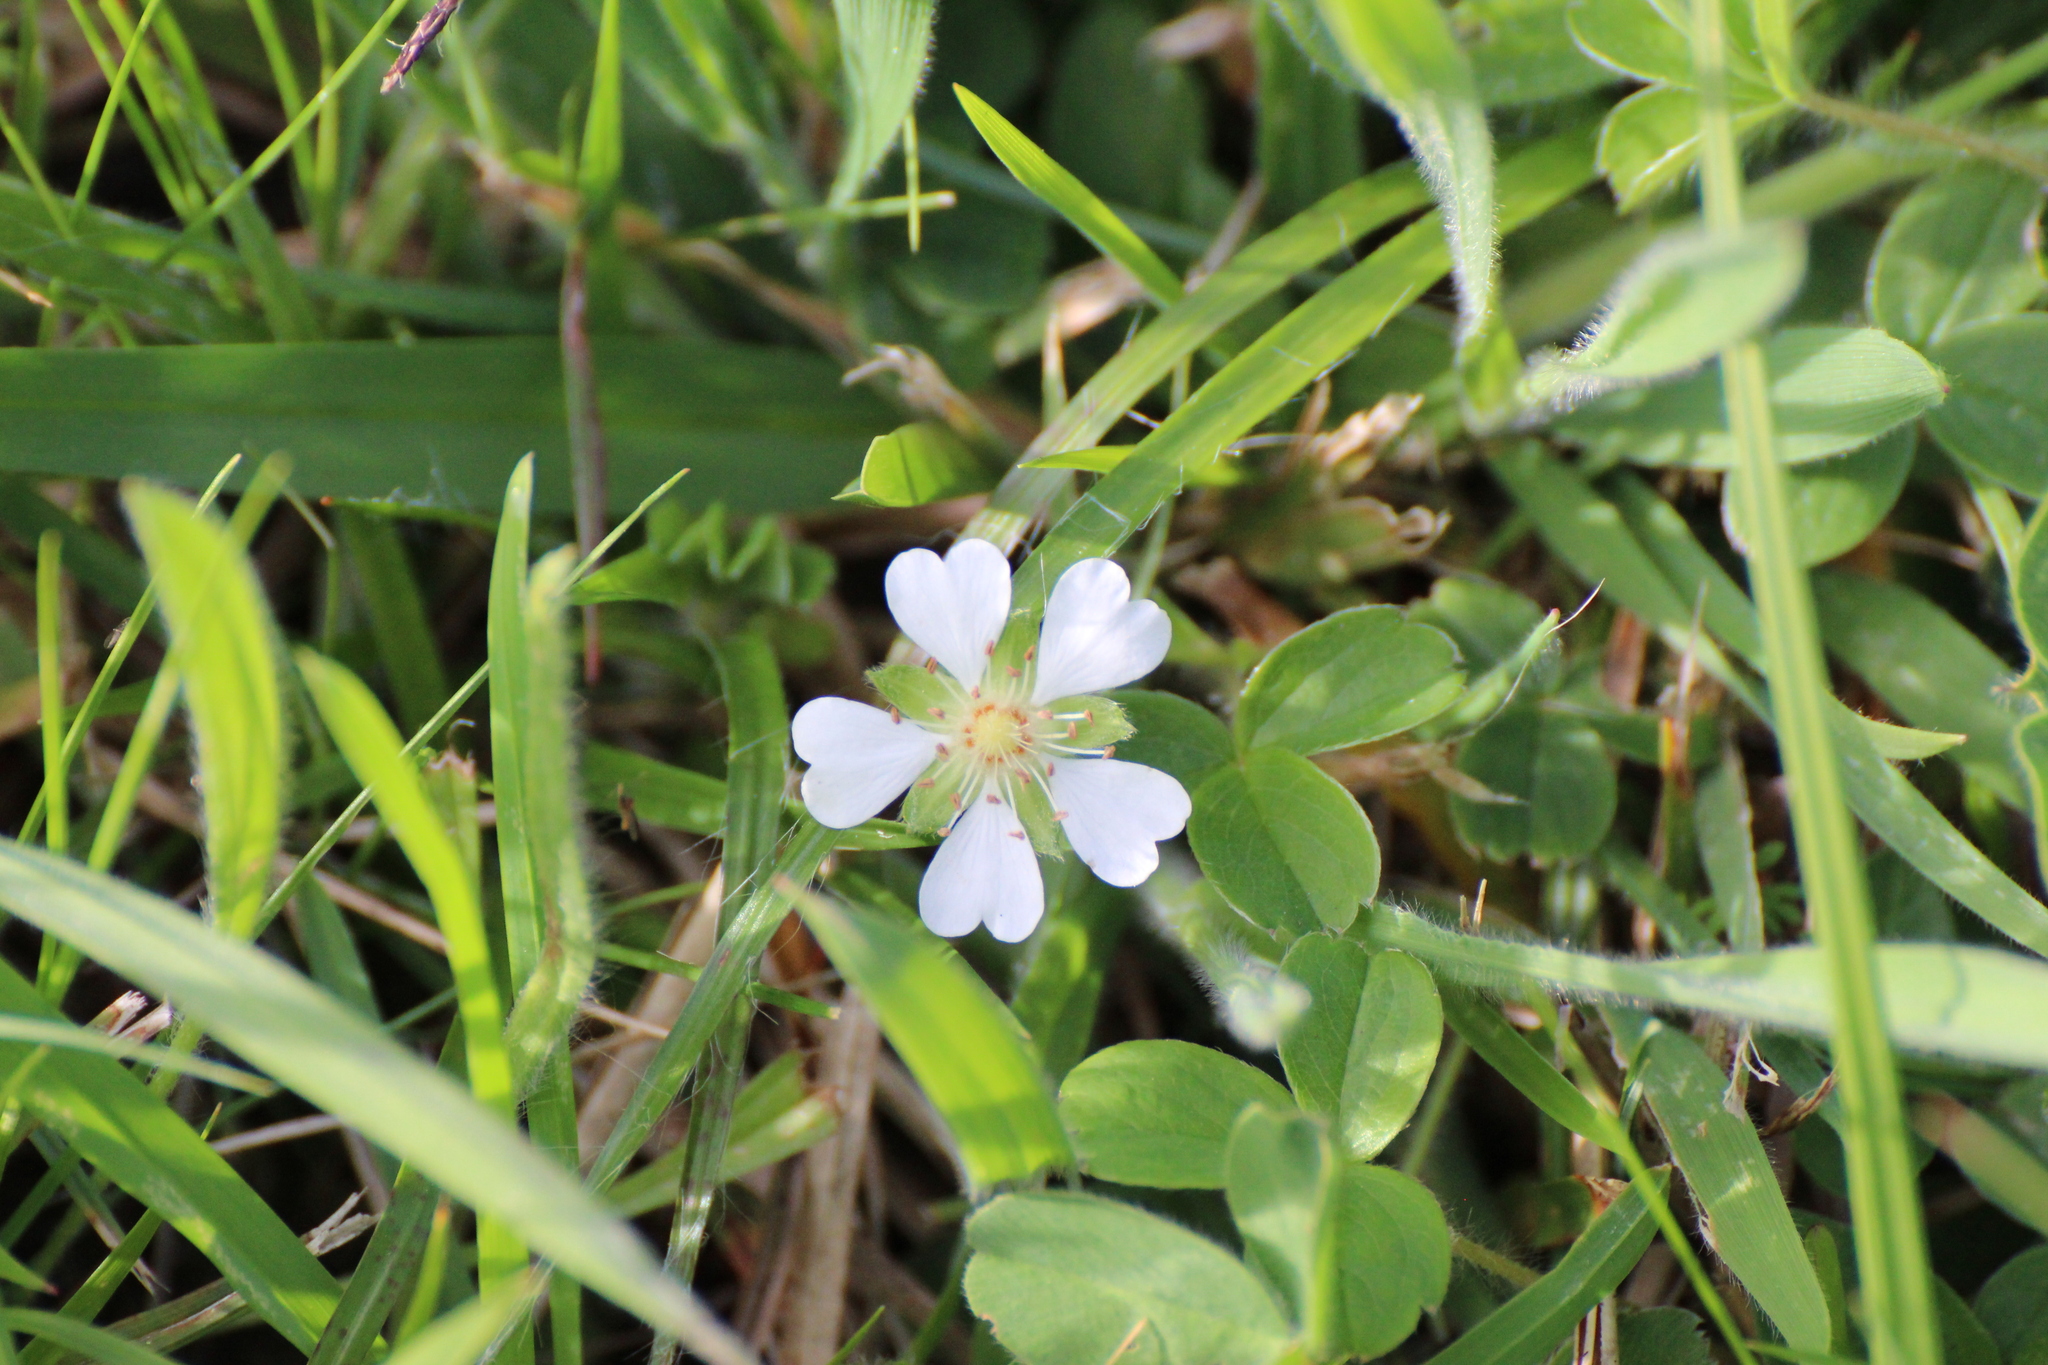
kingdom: Plantae
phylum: Tracheophyta
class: Magnoliopsida
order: Rosales
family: Rosaceae
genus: Potentilla
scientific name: Potentilla montana
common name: Mountain cinquefoil
